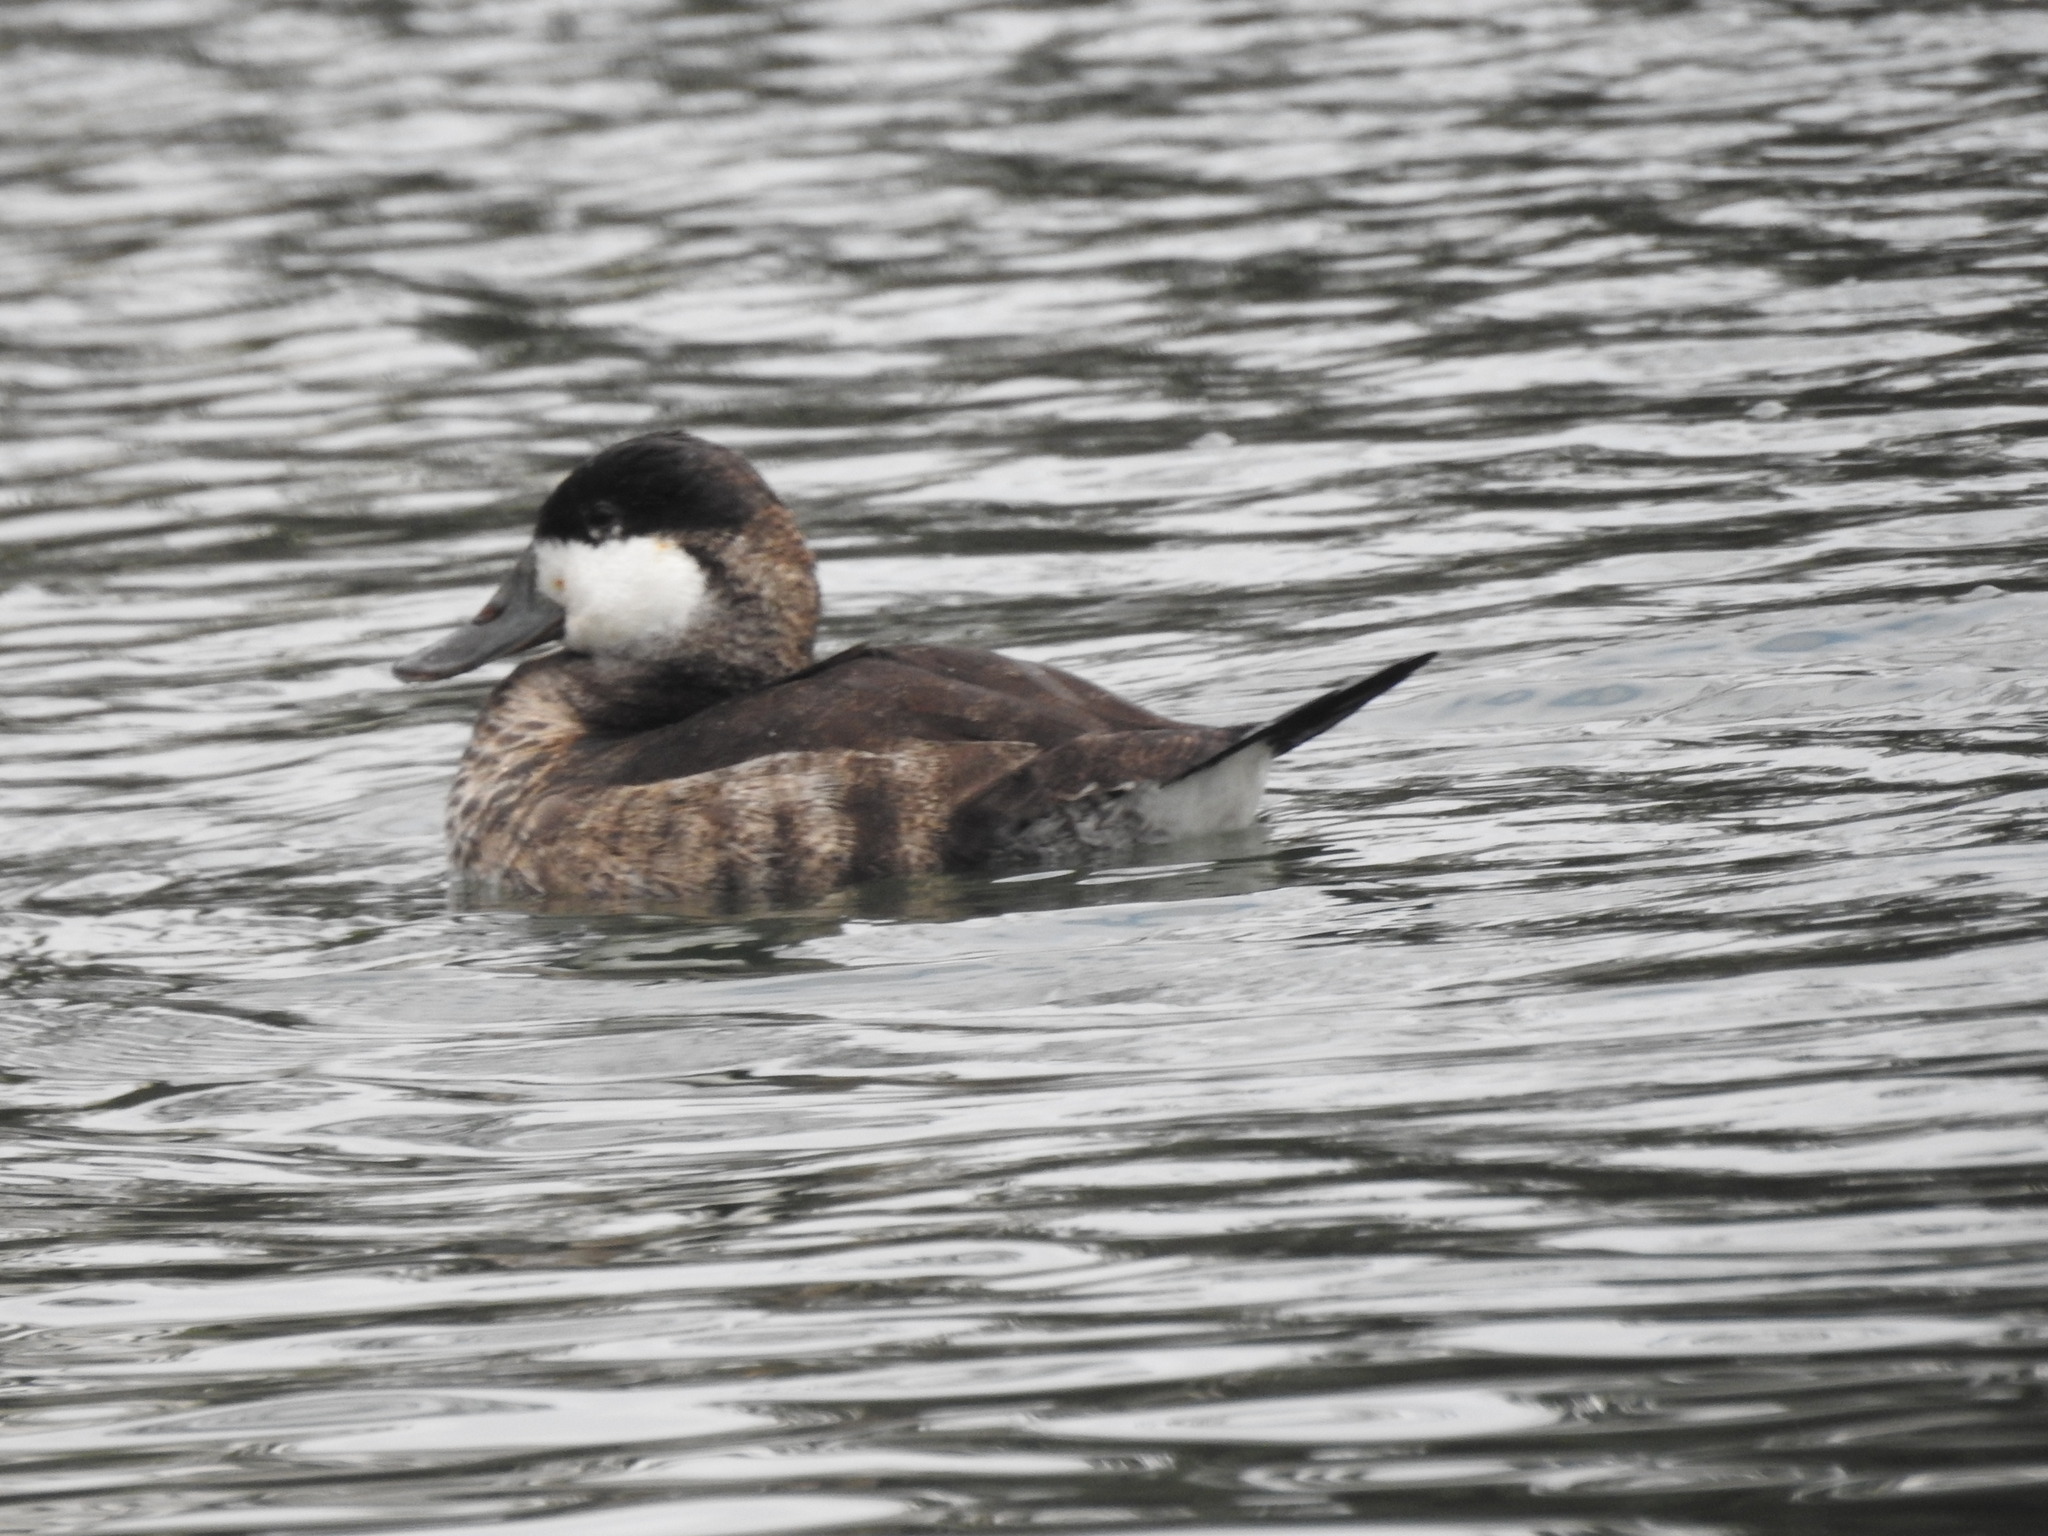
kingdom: Animalia
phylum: Chordata
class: Aves
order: Anseriformes
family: Anatidae
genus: Oxyura
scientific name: Oxyura jamaicensis
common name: Ruddy duck
